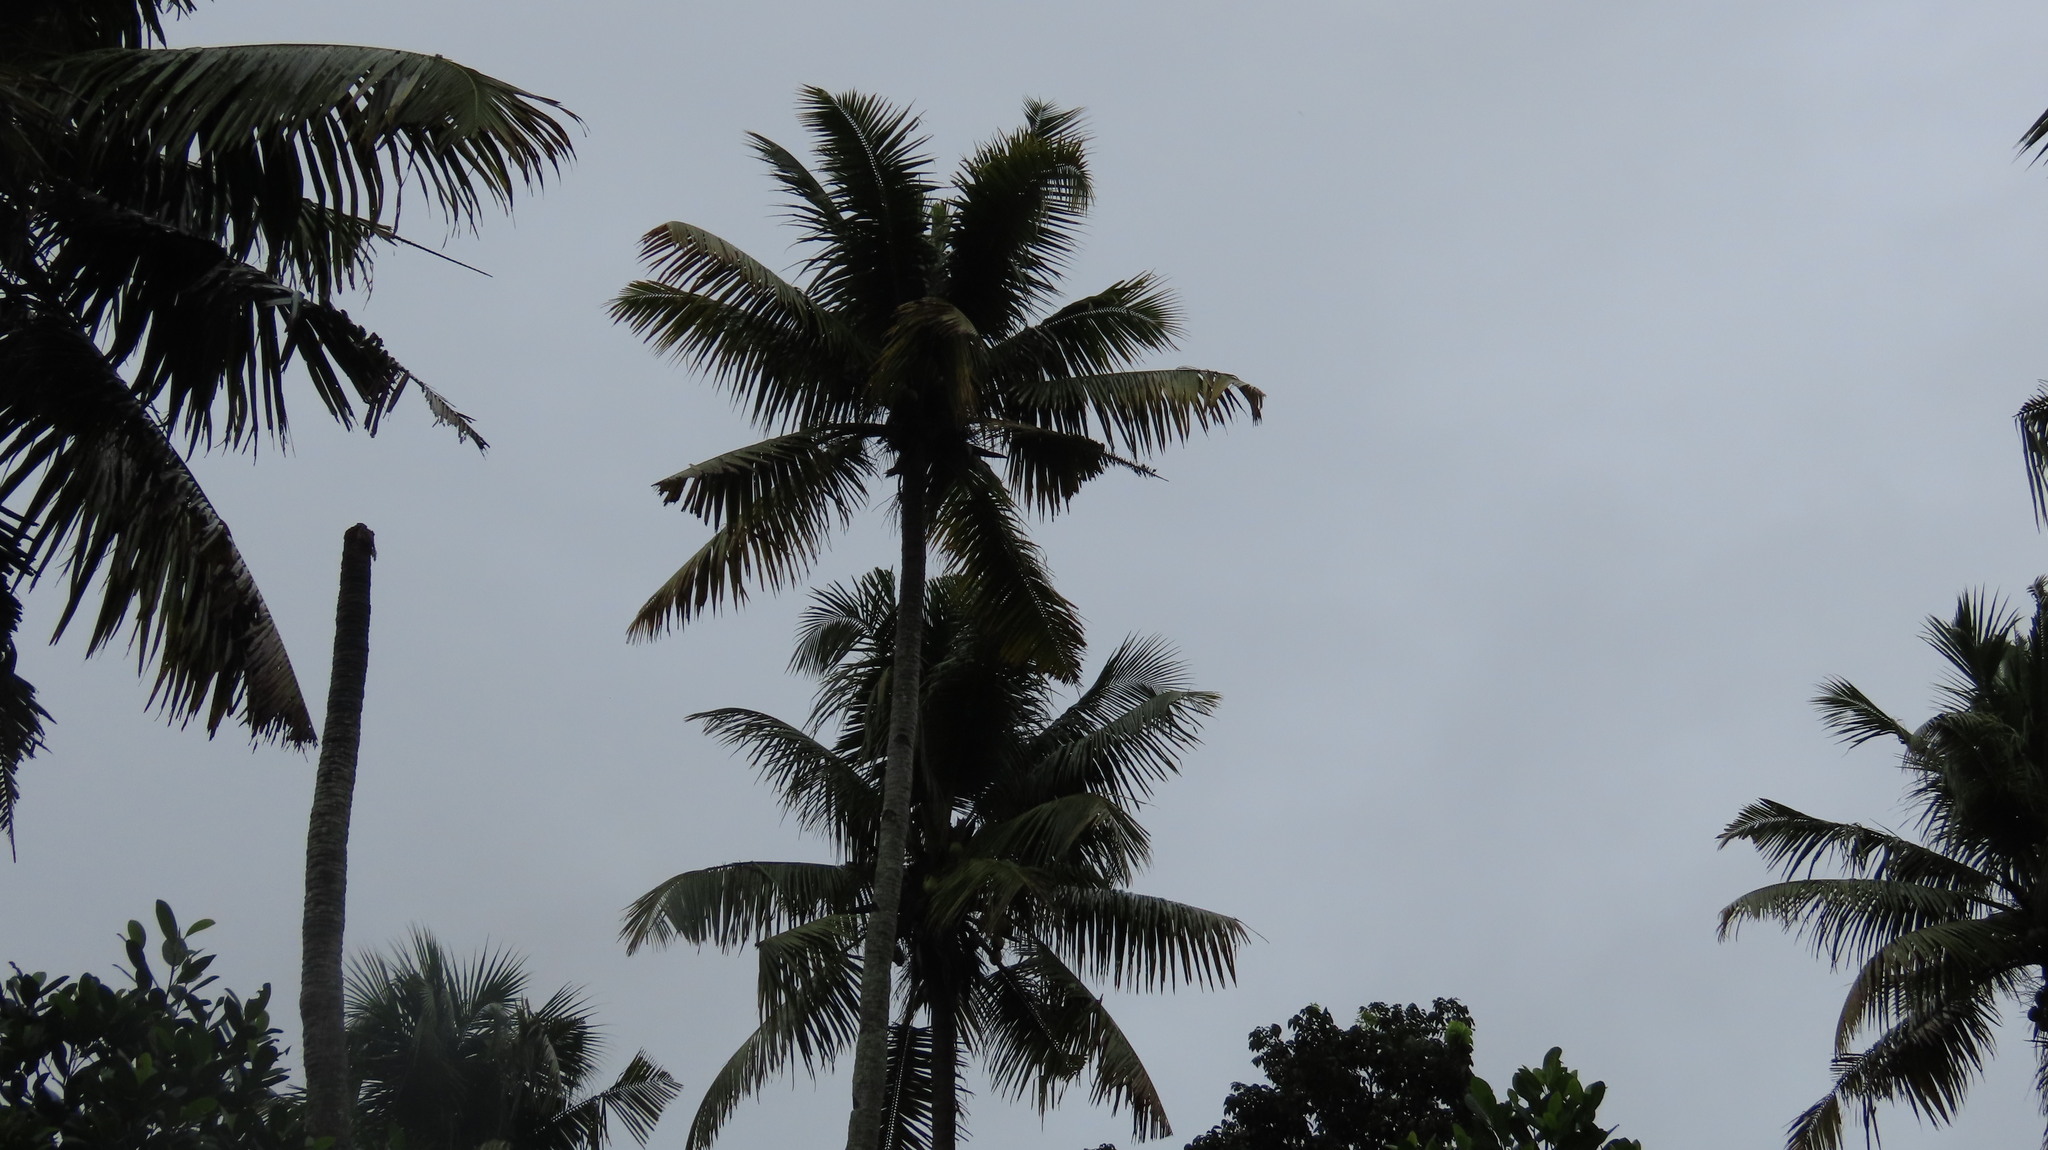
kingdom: Plantae
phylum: Tracheophyta
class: Liliopsida
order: Arecales
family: Arecaceae
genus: Cocos
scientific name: Cocos nucifera
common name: Coconut palm
